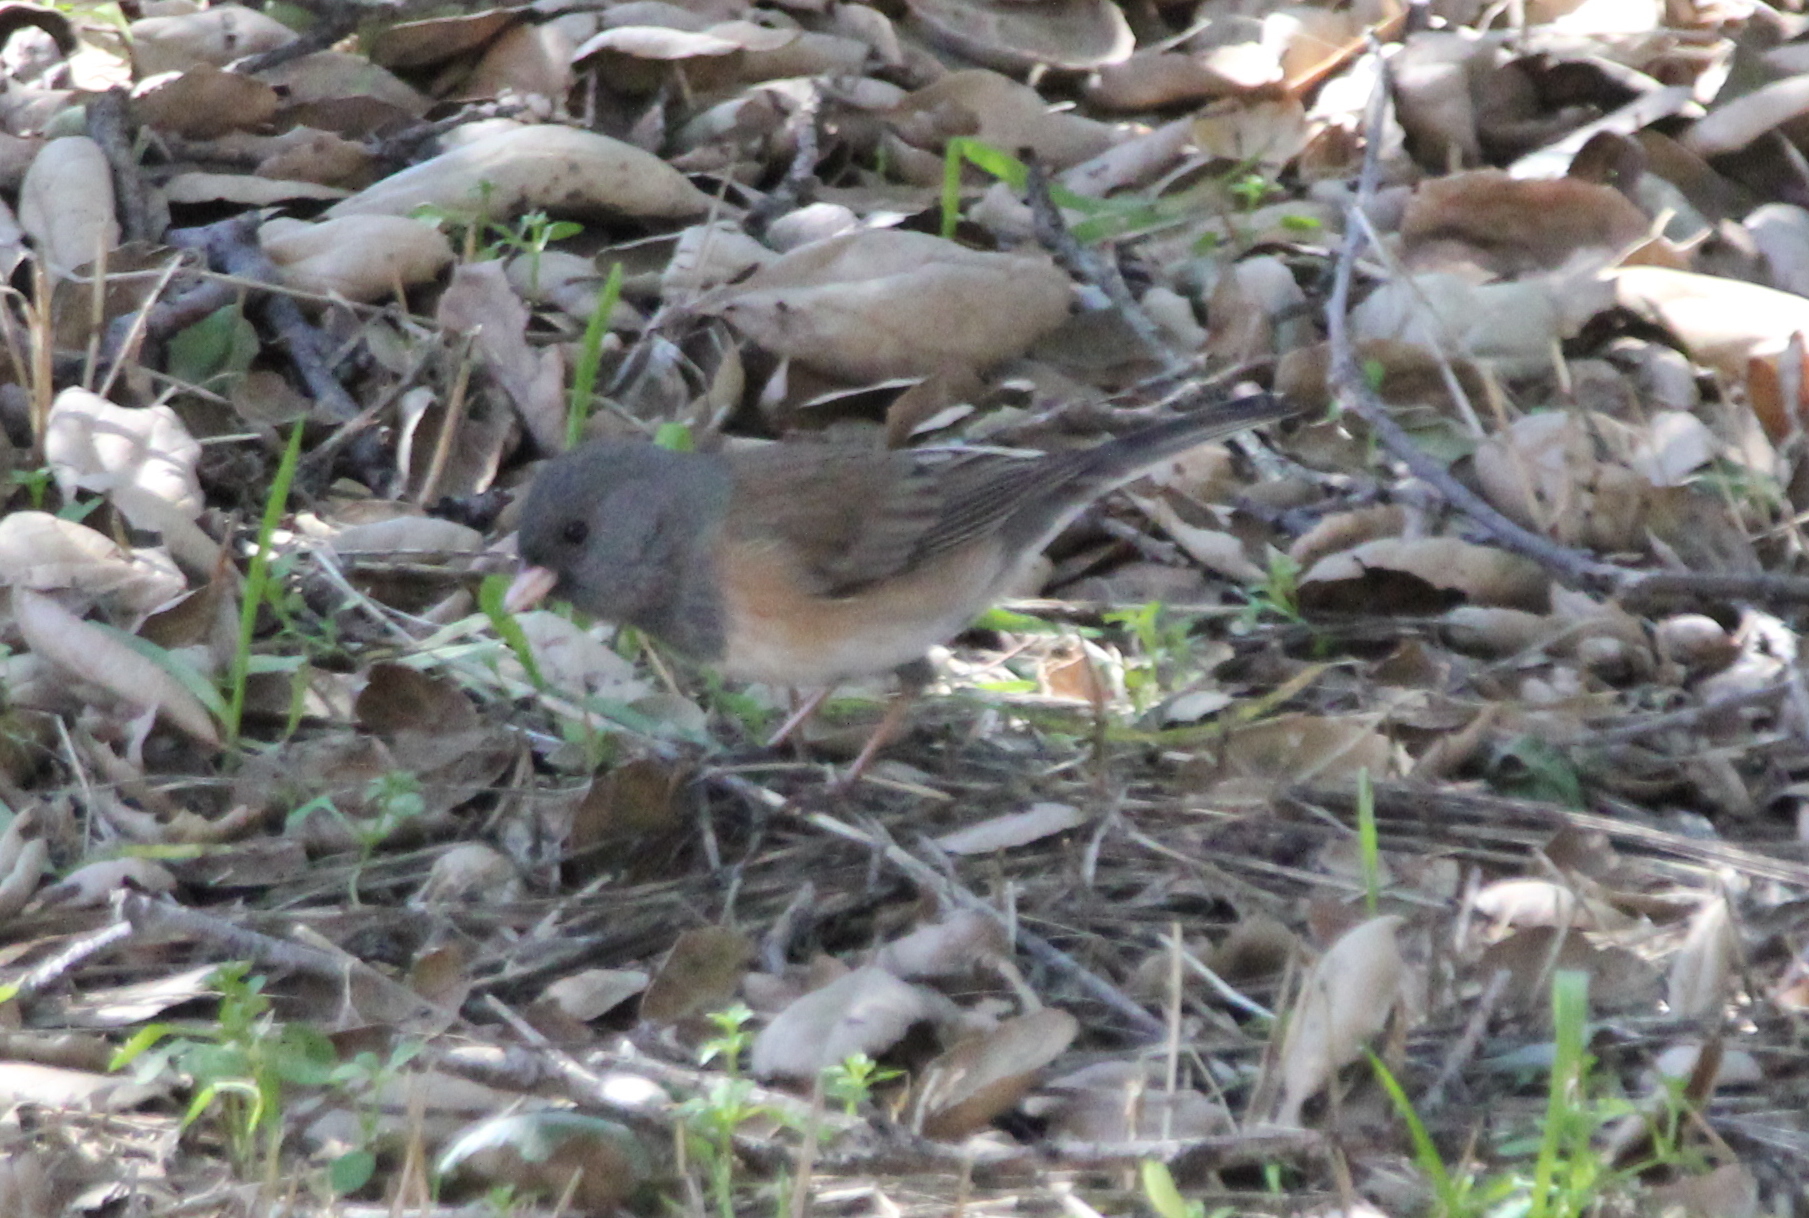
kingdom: Animalia
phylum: Chordata
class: Aves
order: Passeriformes
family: Passerellidae
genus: Junco
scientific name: Junco hyemalis
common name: Dark-eyed junco
